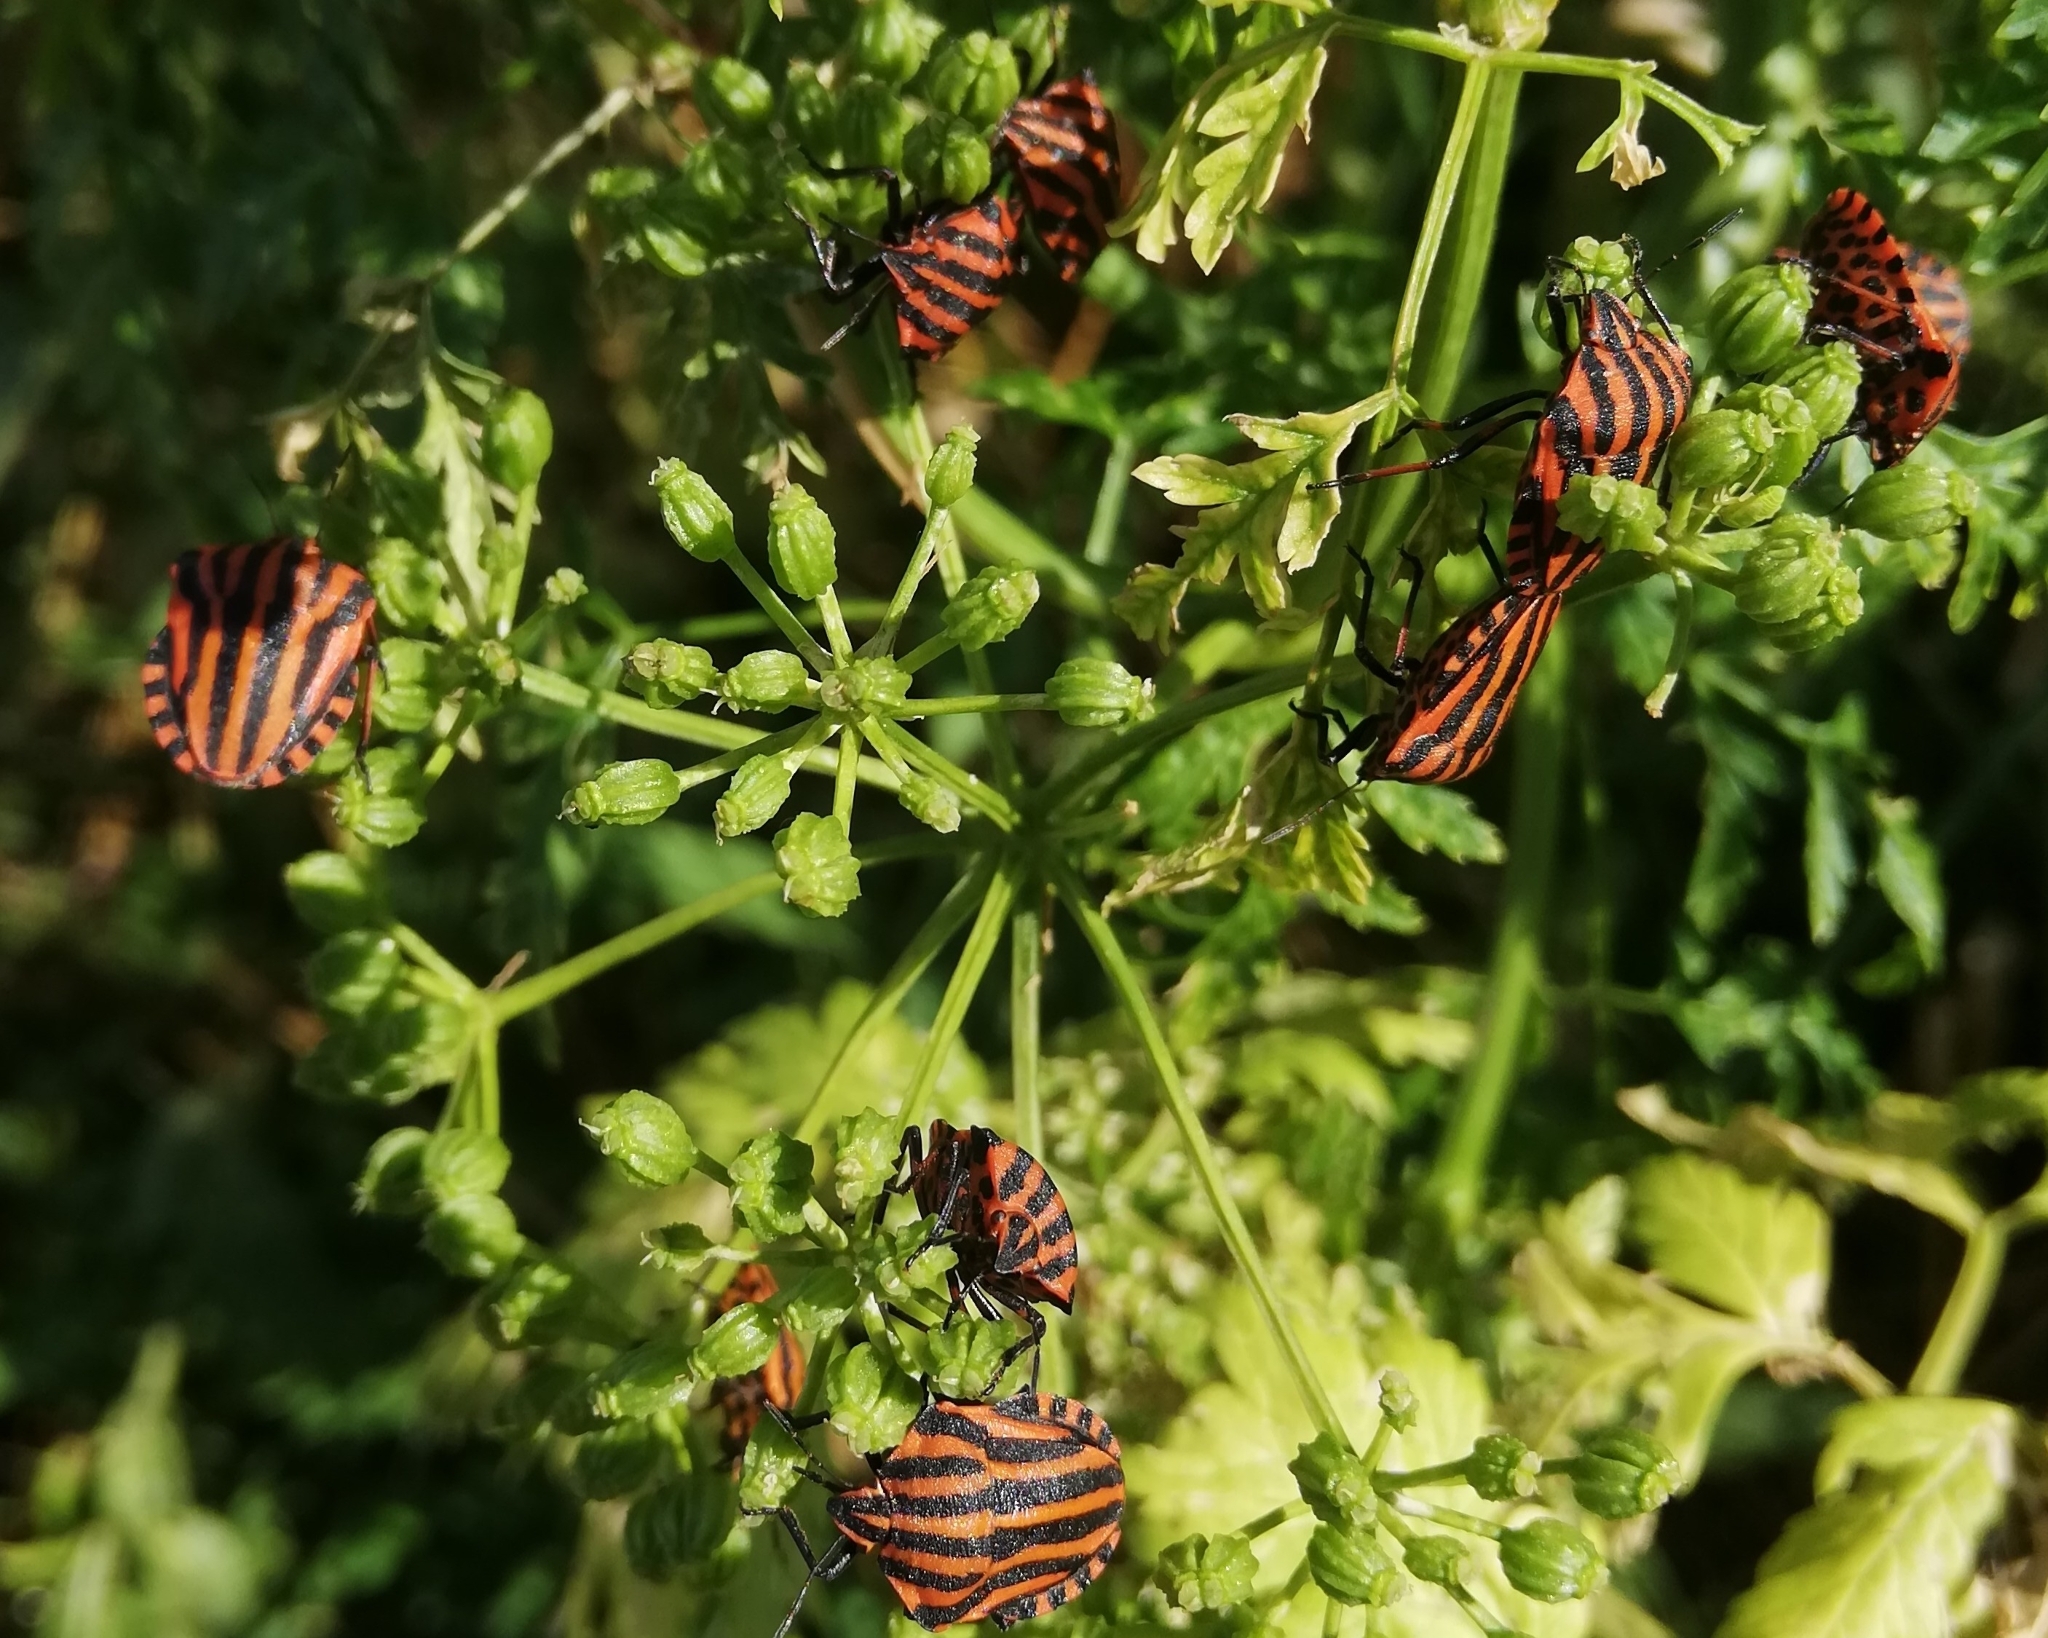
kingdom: Animalia
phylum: Arthropoda
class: Insecta
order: Hemiptera
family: Pentatomidae
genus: Graphosoma
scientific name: Graphosoma italicum
